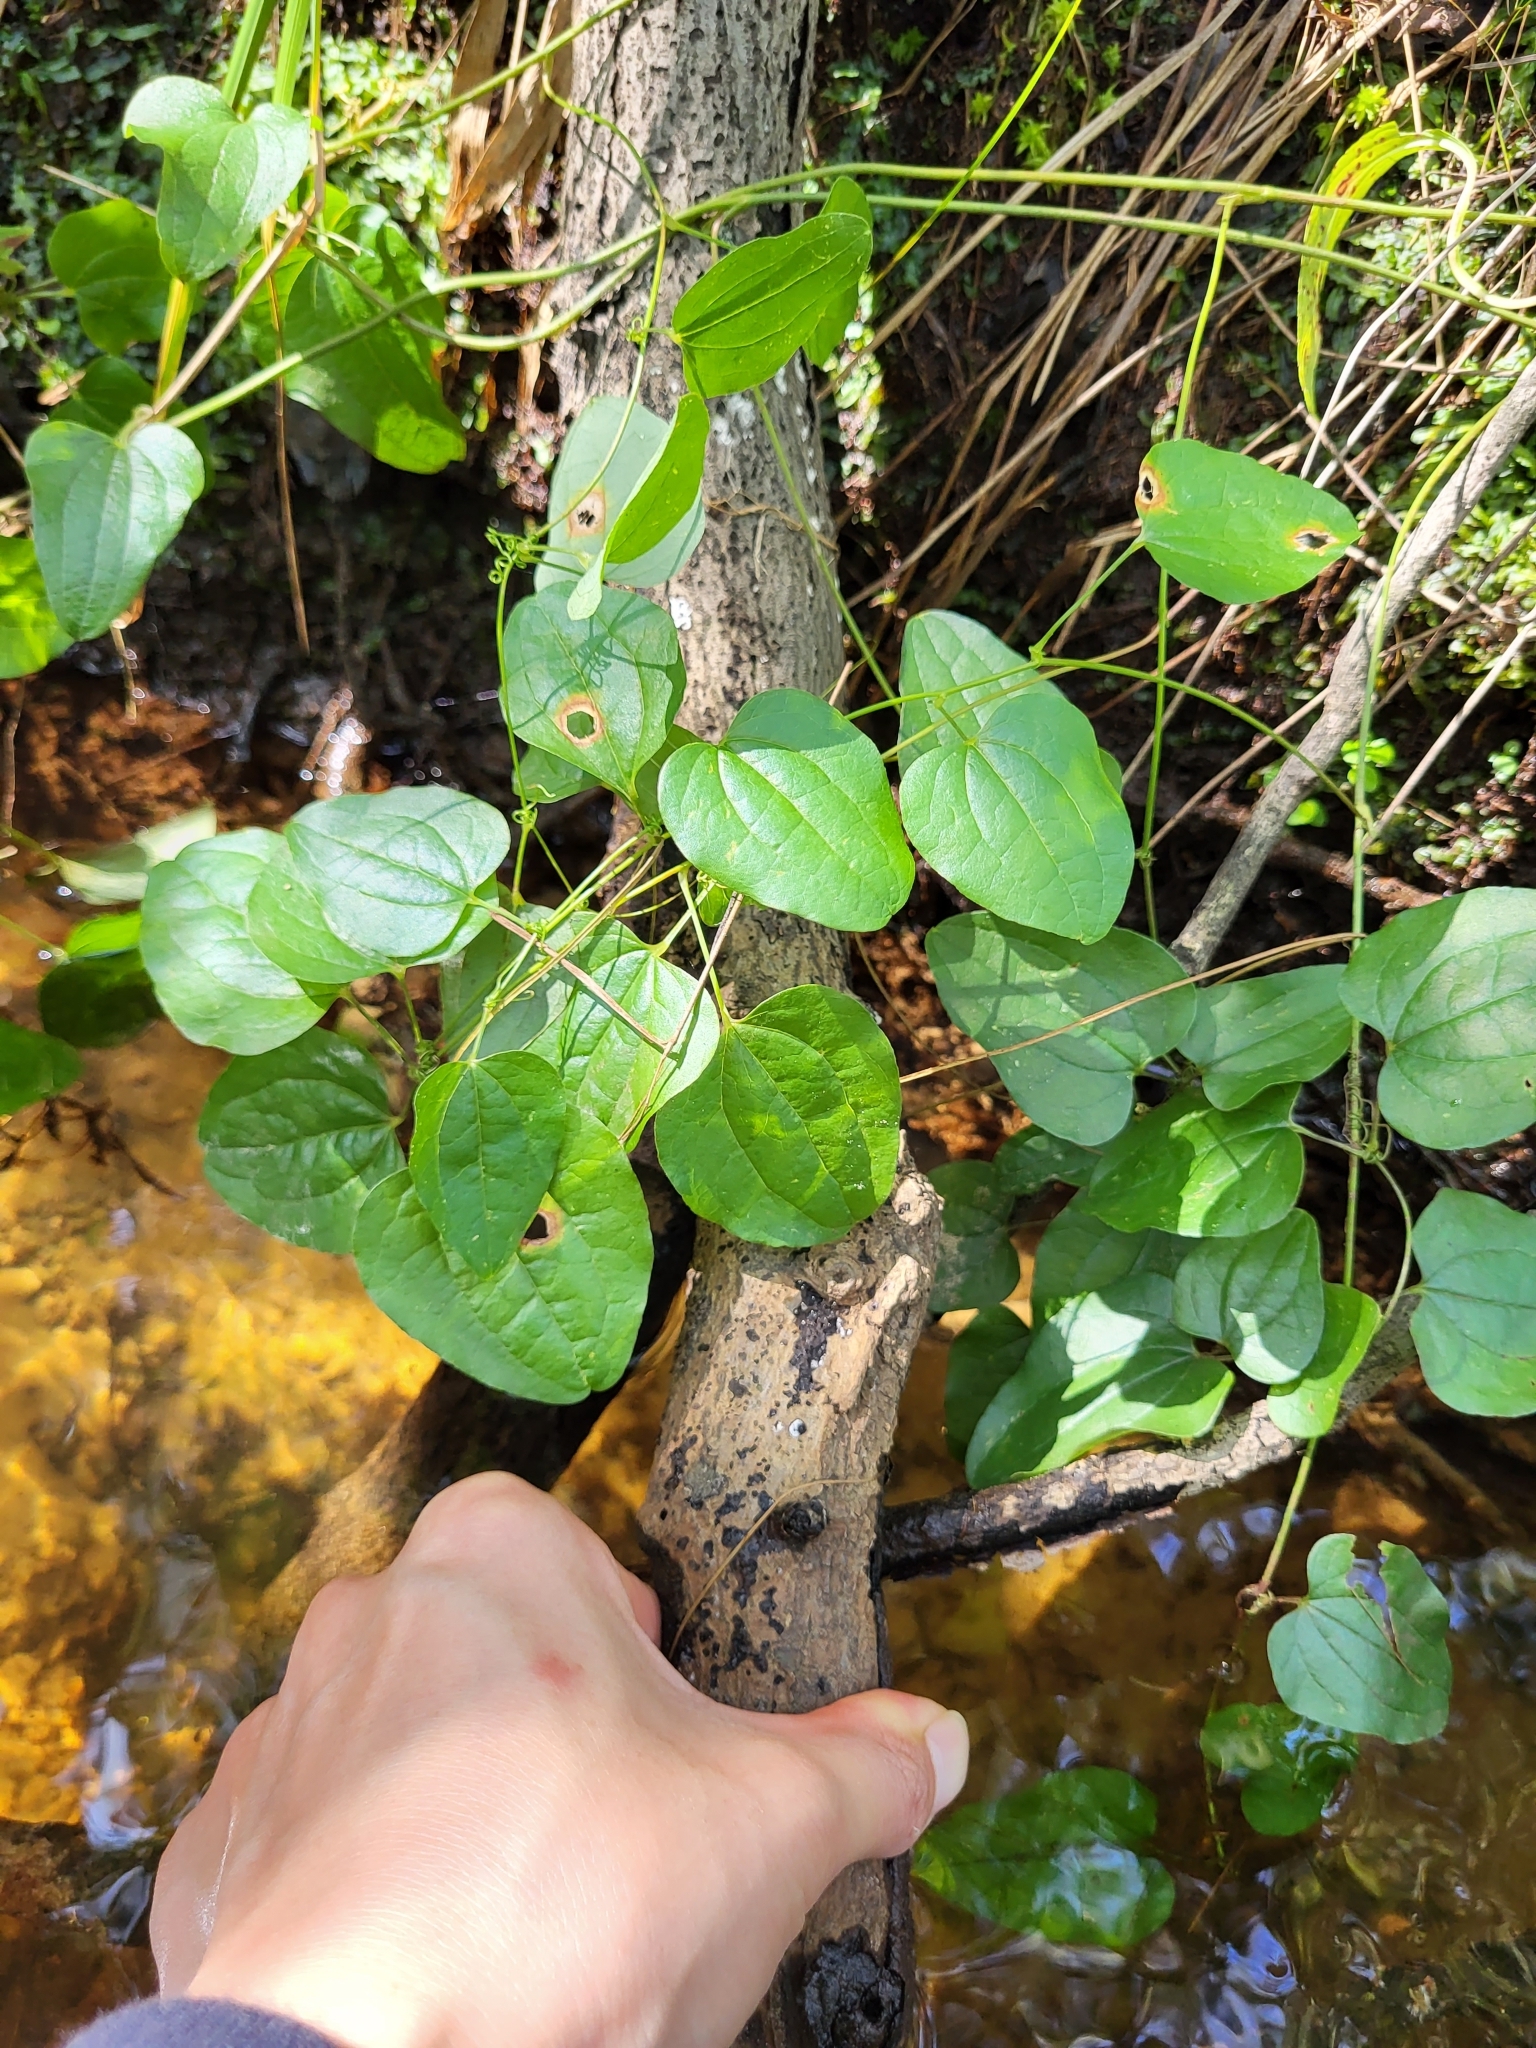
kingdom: Plantae
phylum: Tracheophyta
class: Liliopsida
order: Liliales
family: Smilacaceae
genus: Smilax
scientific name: Smilax pseudochina
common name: False chinaroot
